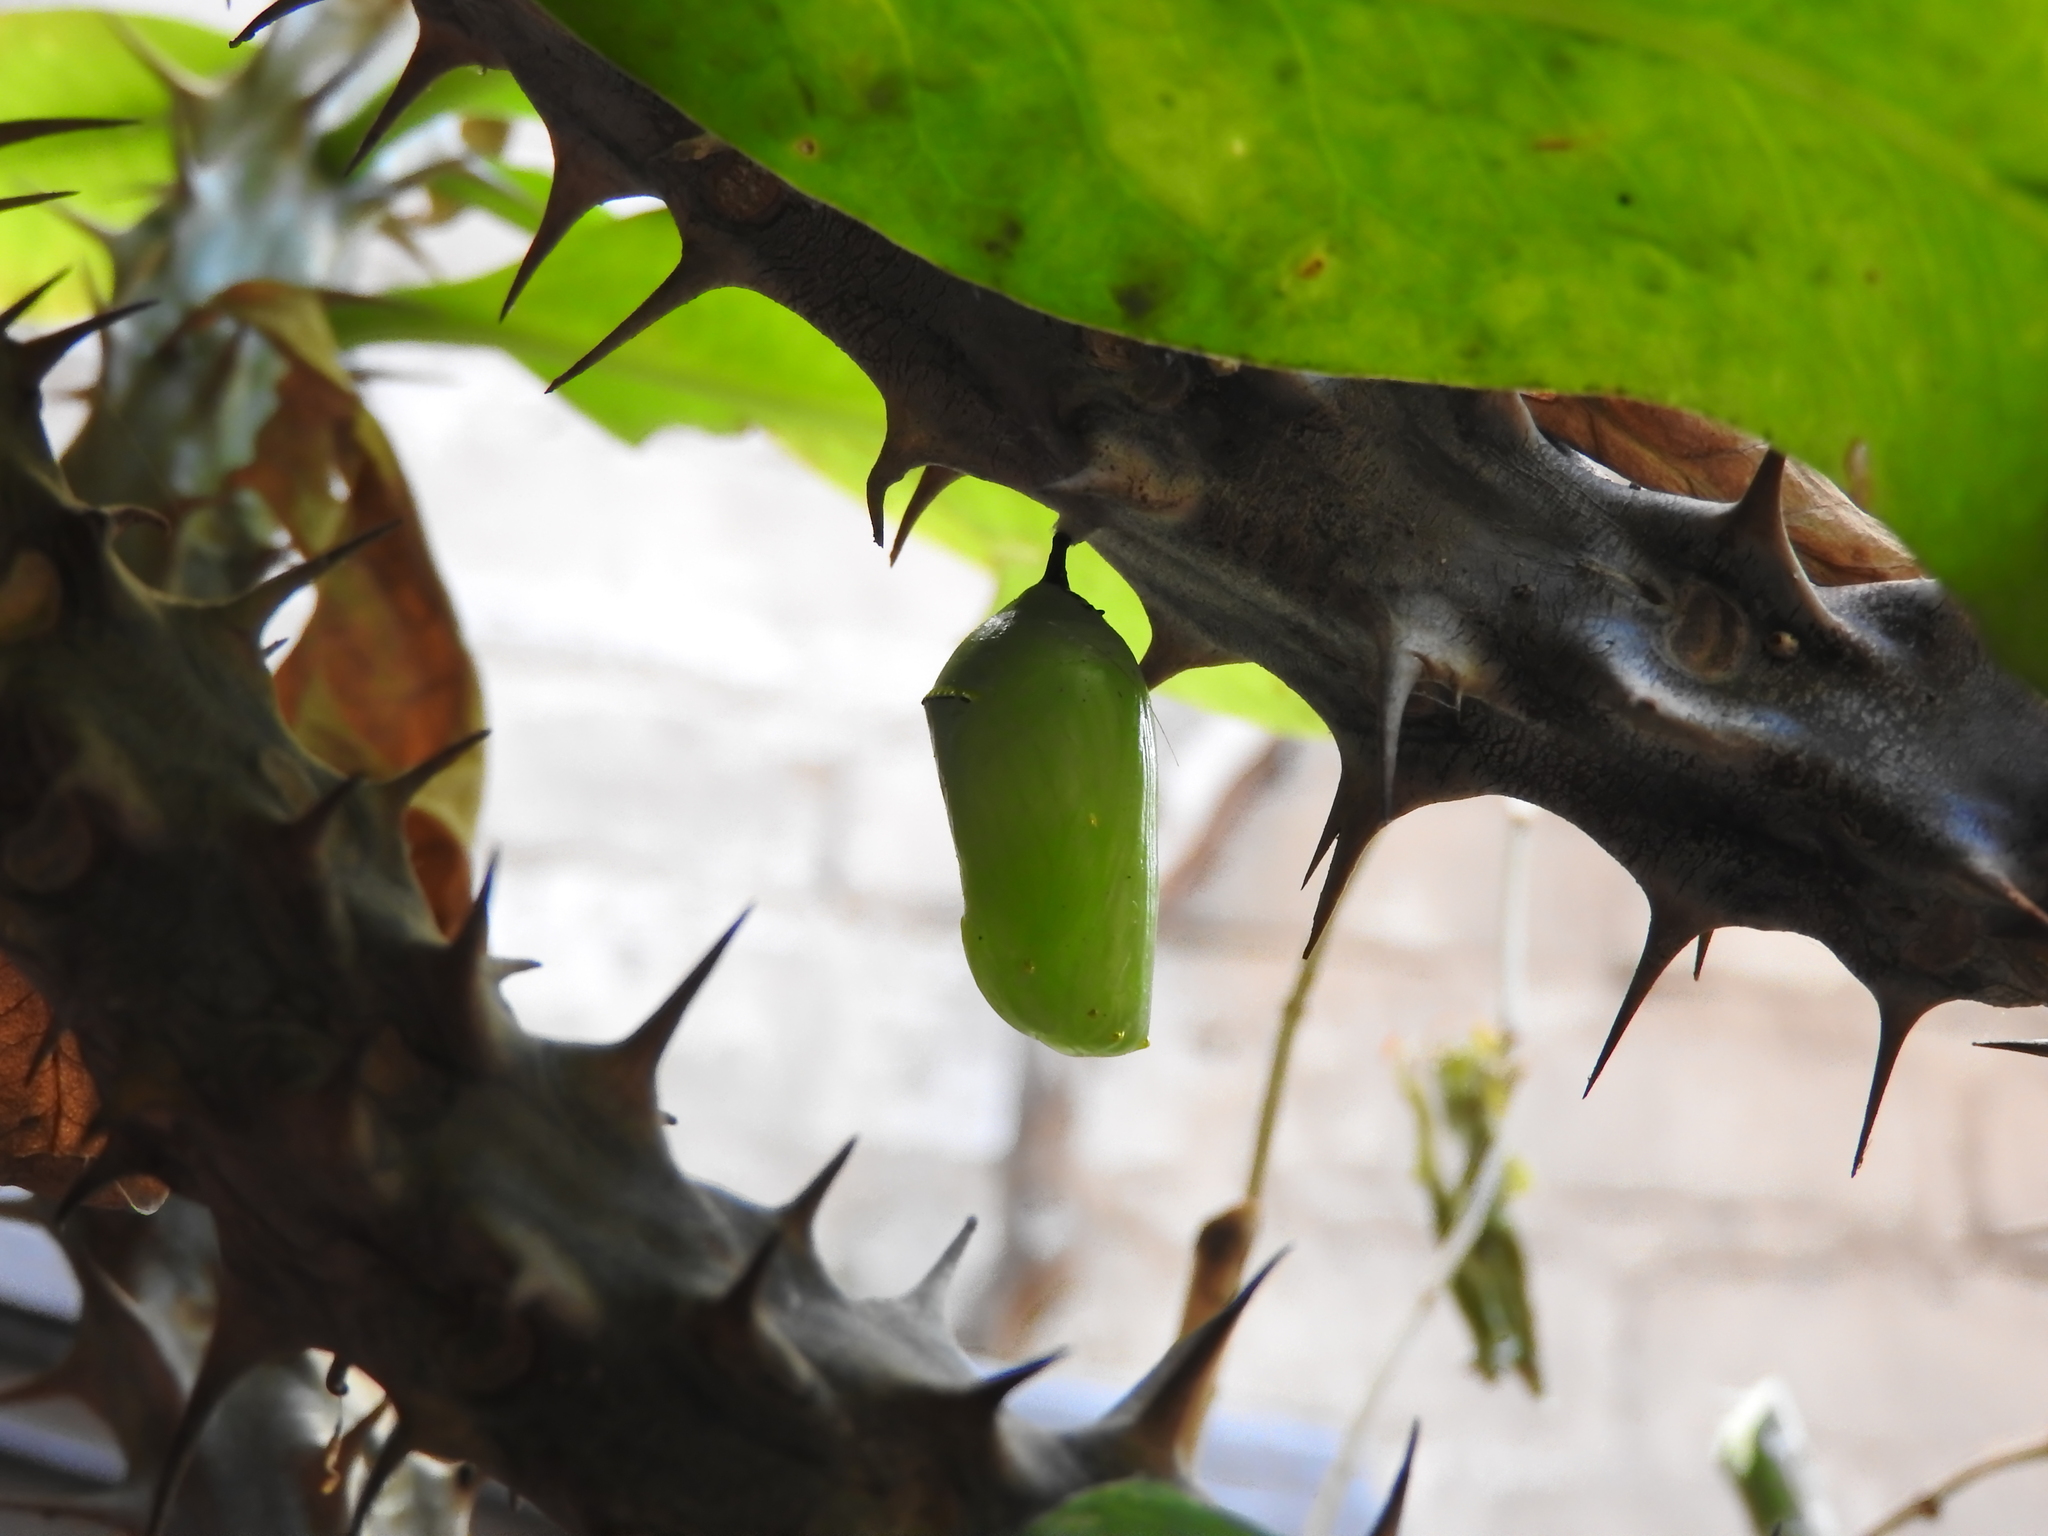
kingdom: Animalia
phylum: Arthropoda
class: Insecta
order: Lepidoptera
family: Nymphalidae
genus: Danaus
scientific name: Danaus plexippus
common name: Monarch
